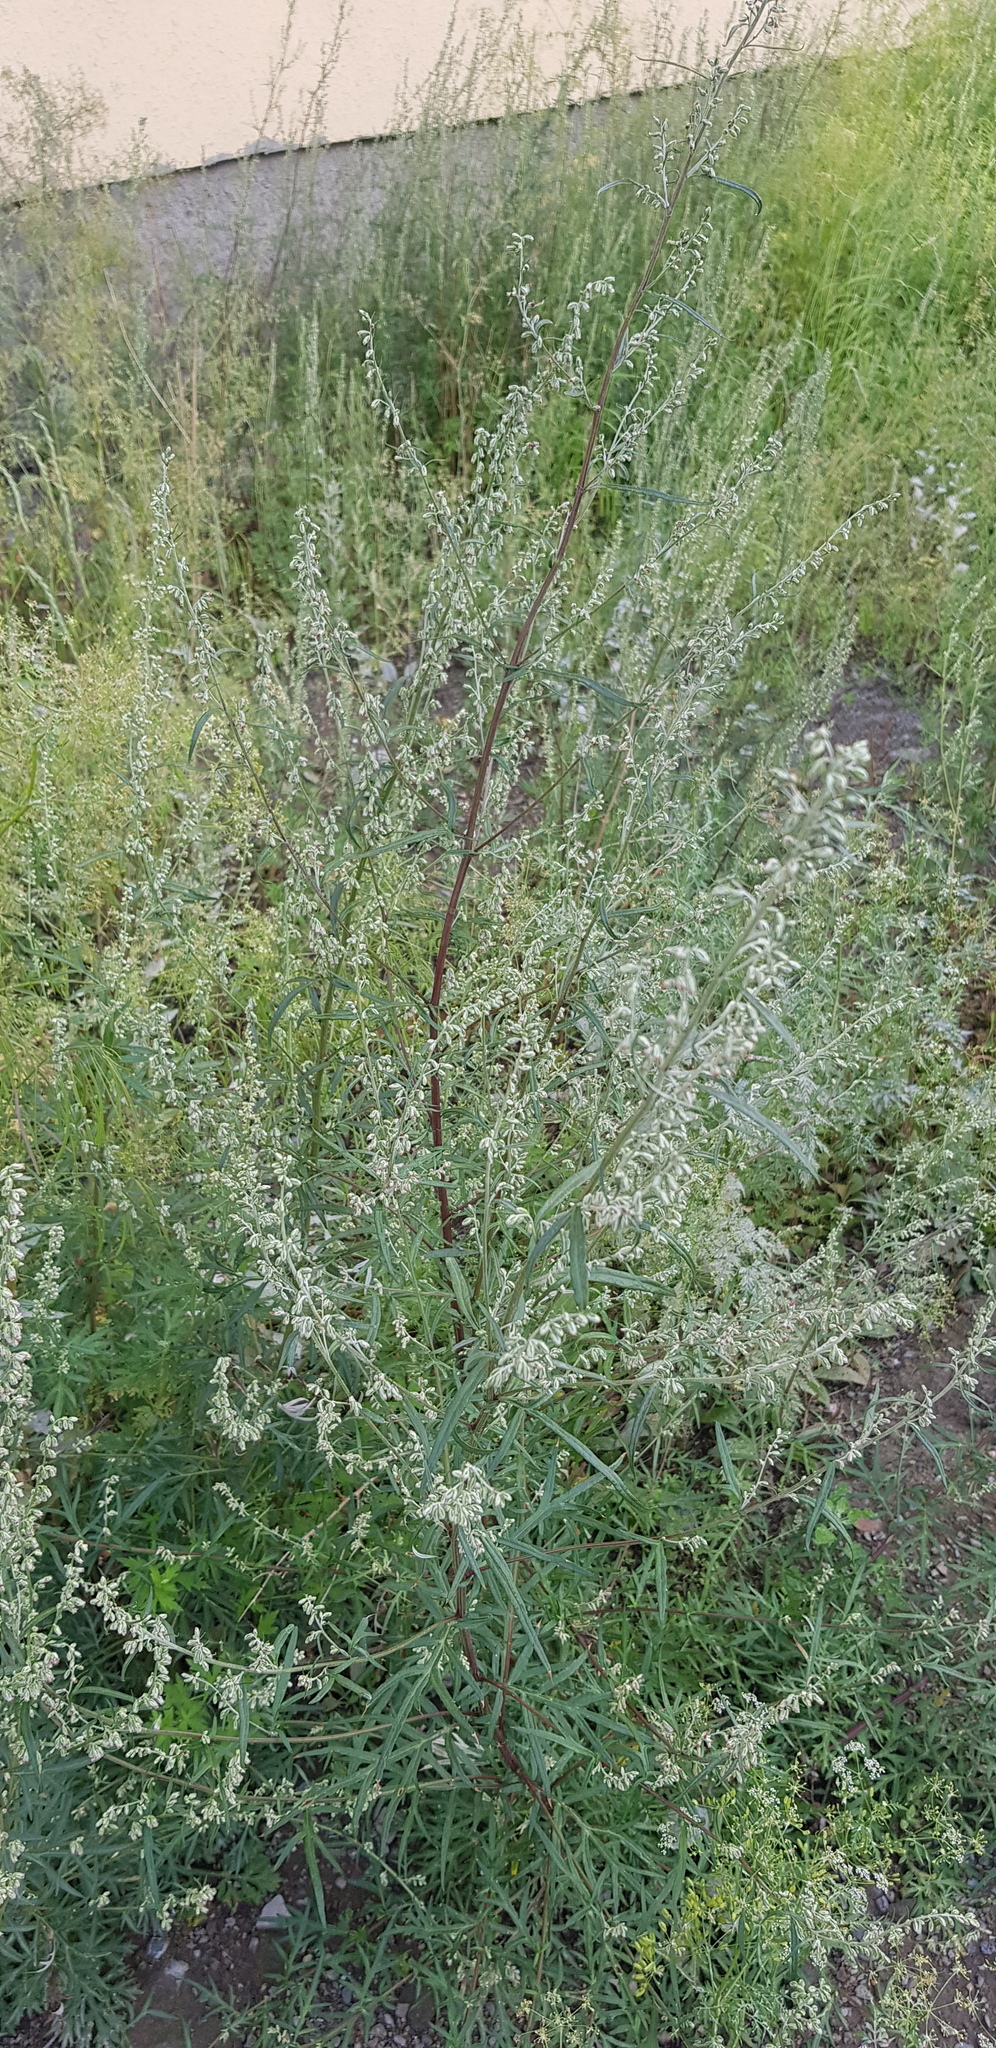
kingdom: Plantae
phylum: Tracheophyta
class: Magnoliopsida
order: Asterales
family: Asteraceae
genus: Artemisia
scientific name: Artemisia mongolica
